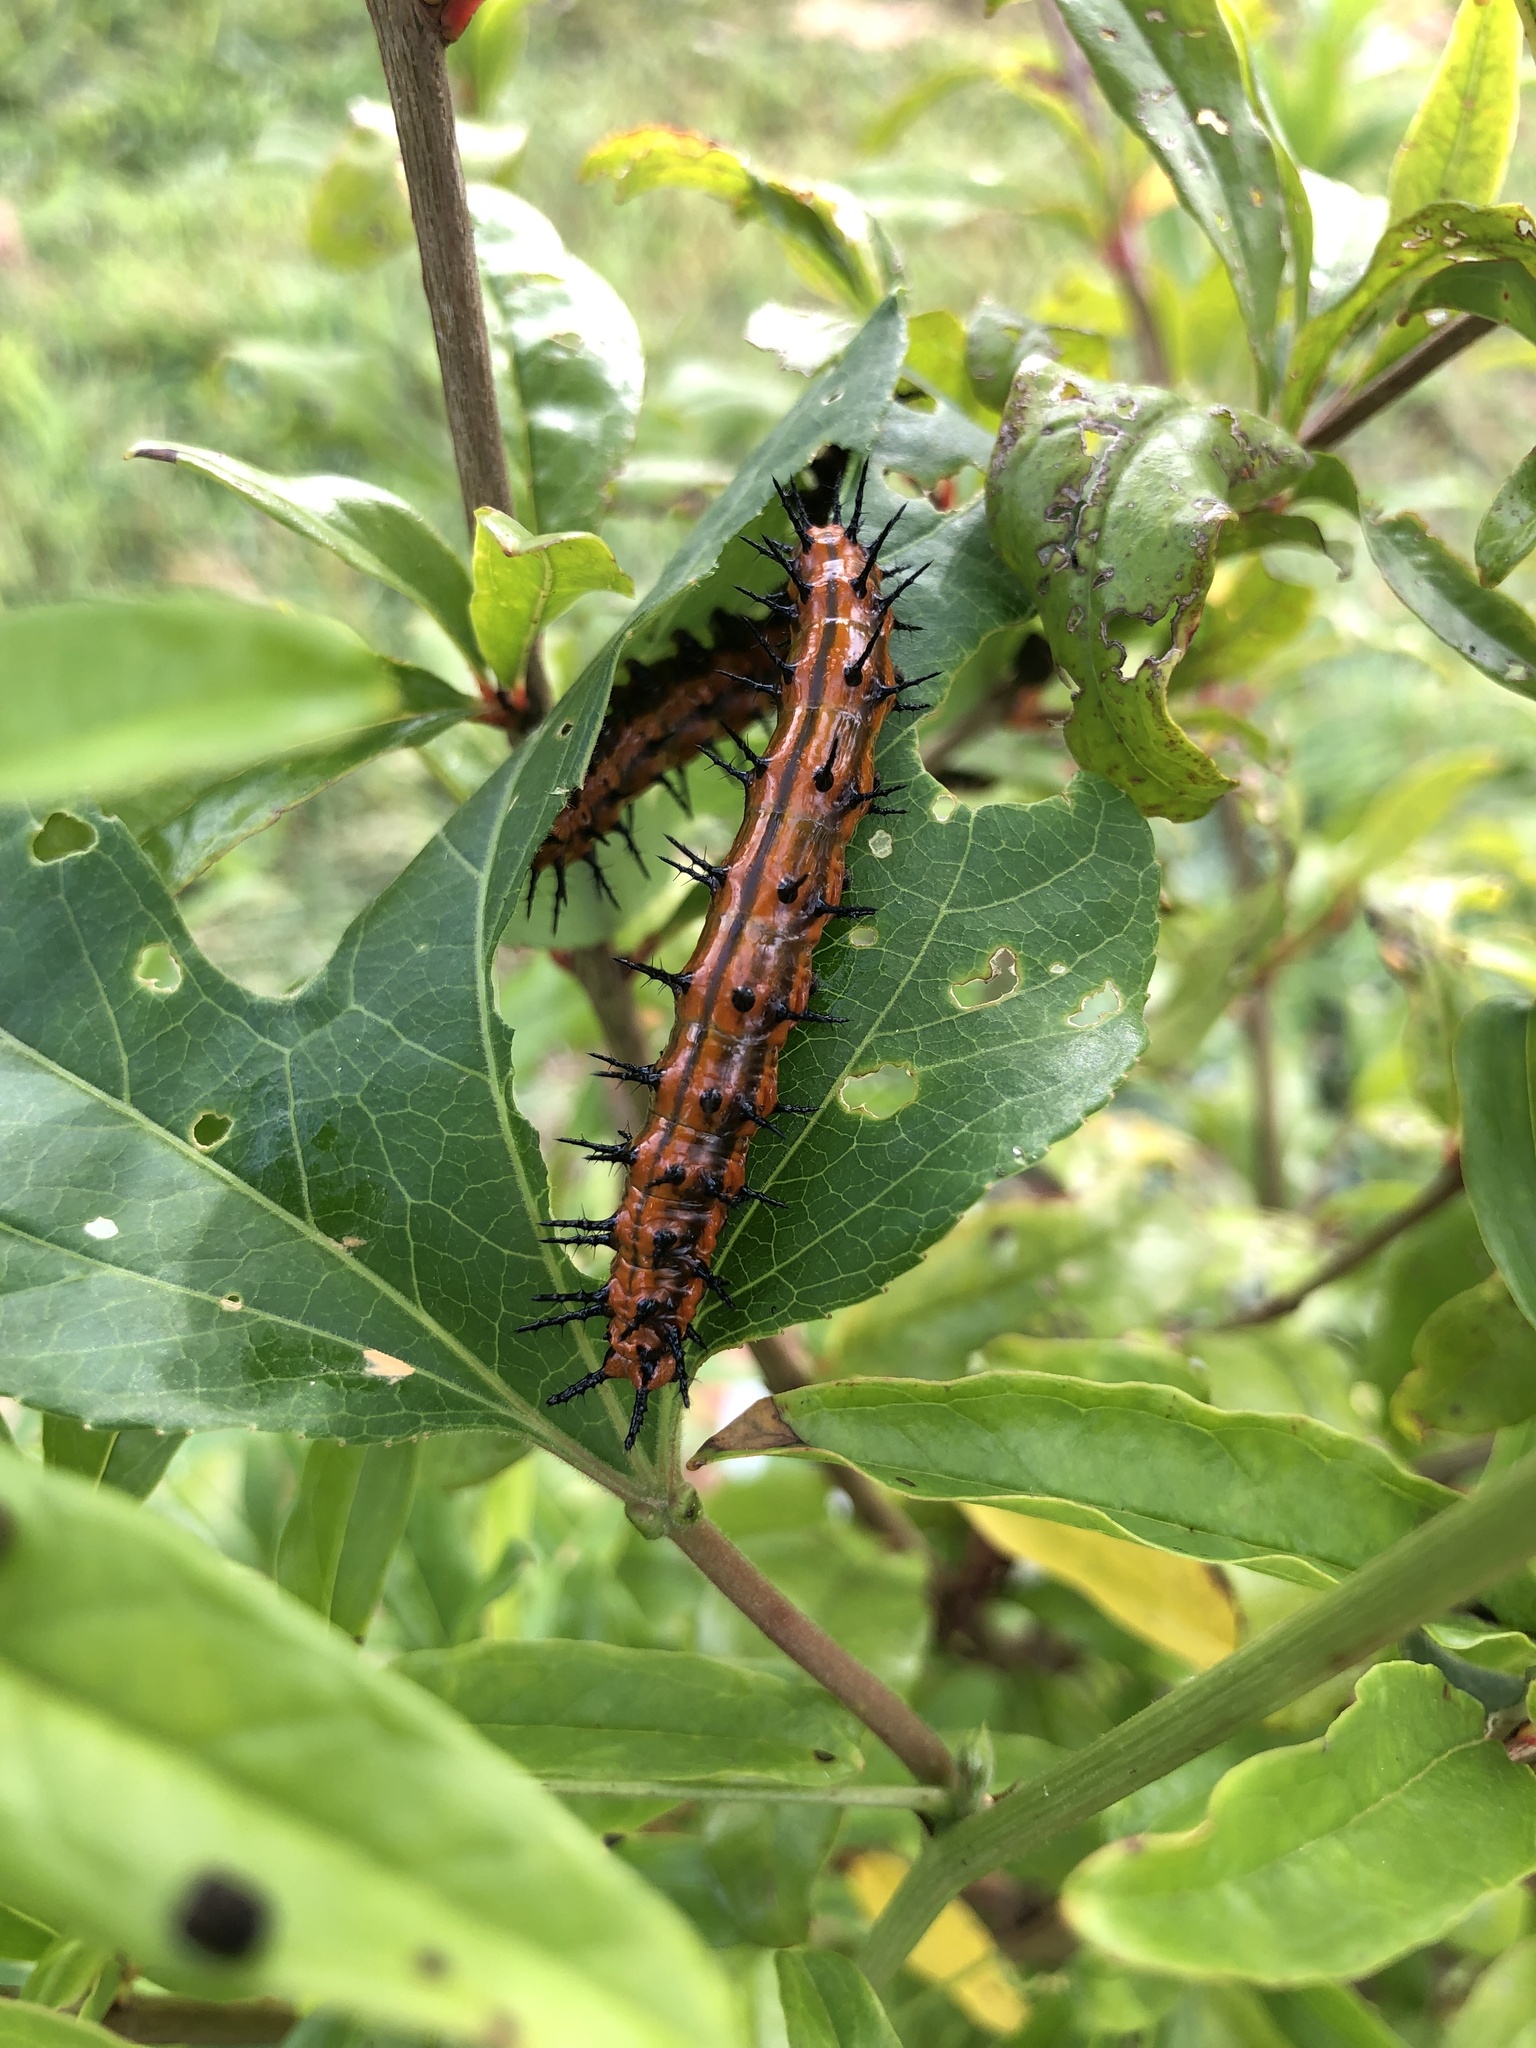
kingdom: Animalia
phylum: Arthropoda
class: Insecta
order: Lepidoptera
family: Nymphalidae
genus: Dione
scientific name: Dione vanillae
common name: Gulf fritillary
